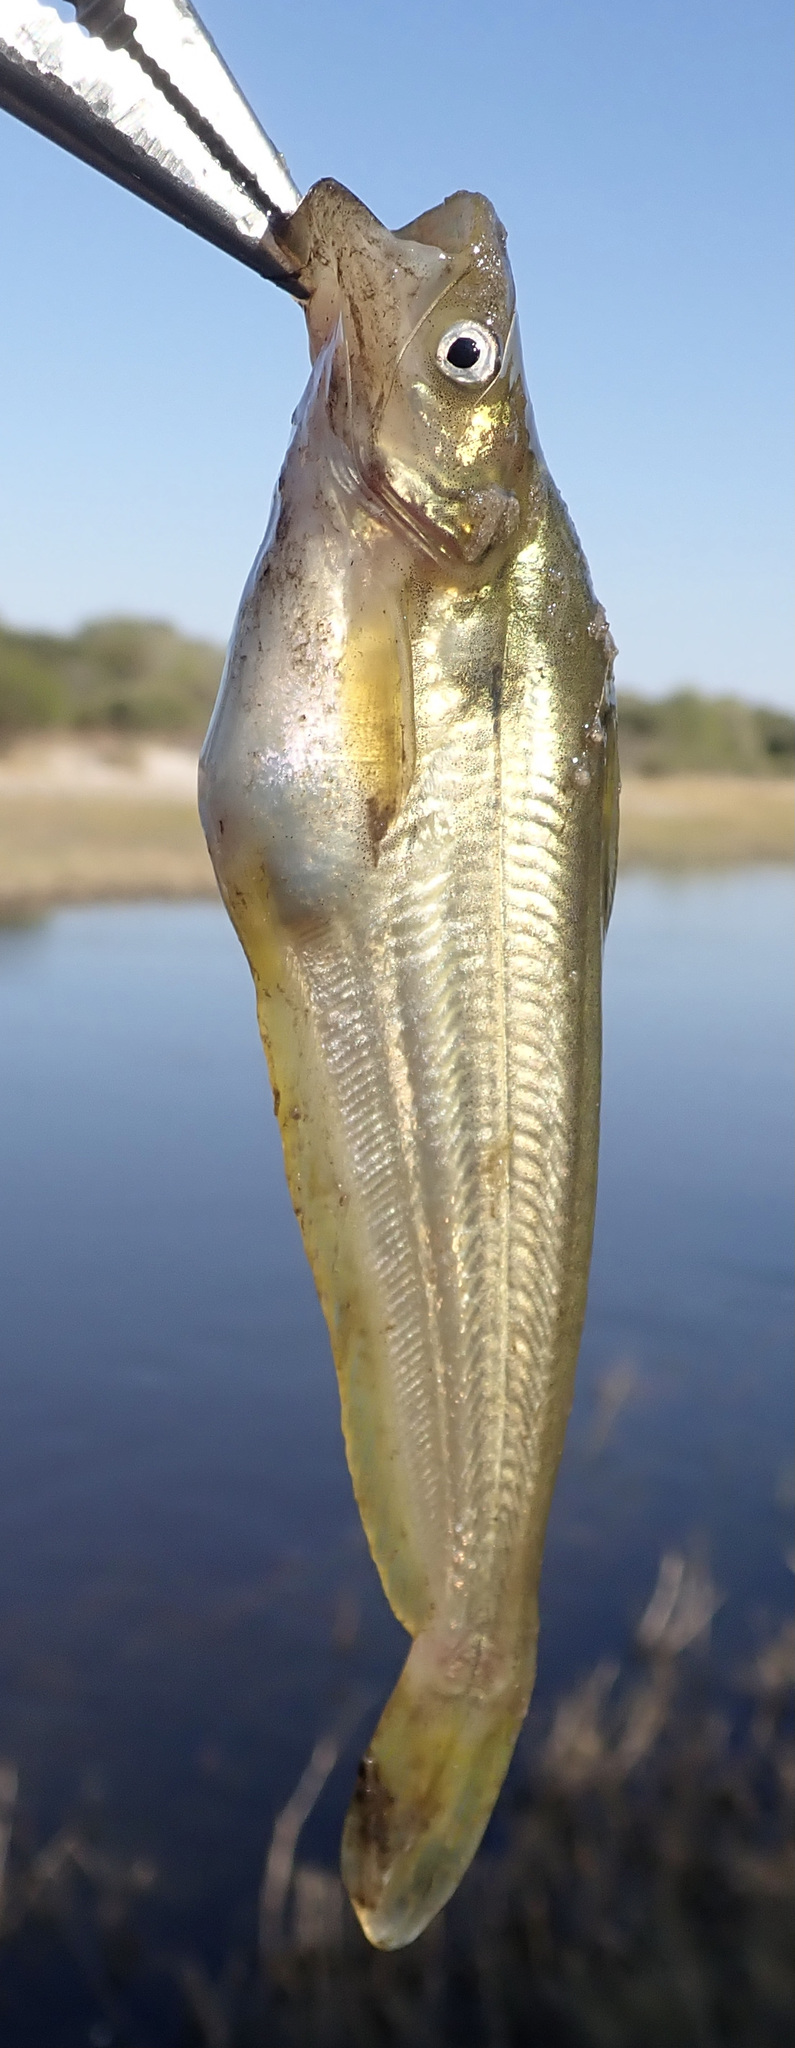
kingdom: Animalia
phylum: Chordata
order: Siluriformes
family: Schilbeidae
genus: Schilbe
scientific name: Schilbe intermedius
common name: Silver catfish
